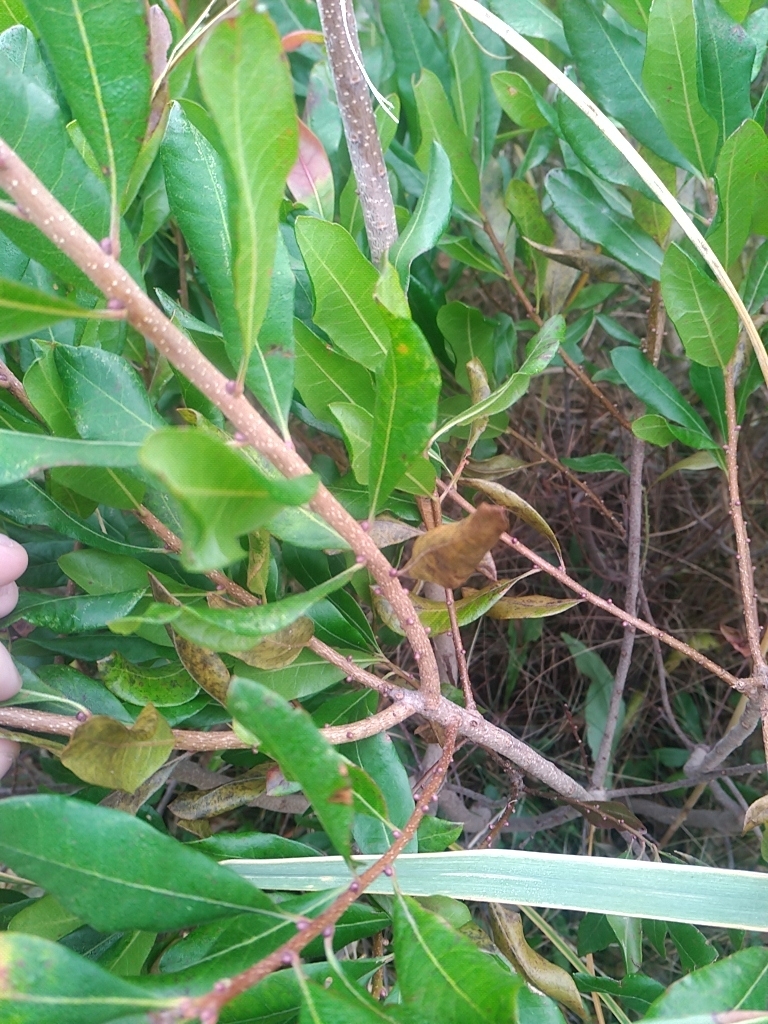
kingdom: Plantae
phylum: Tracheophyta
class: Magnoliopsida
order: Fagales
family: Myricaceae
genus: Morella
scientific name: Morella pensylvanica
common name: Northern bayberry
